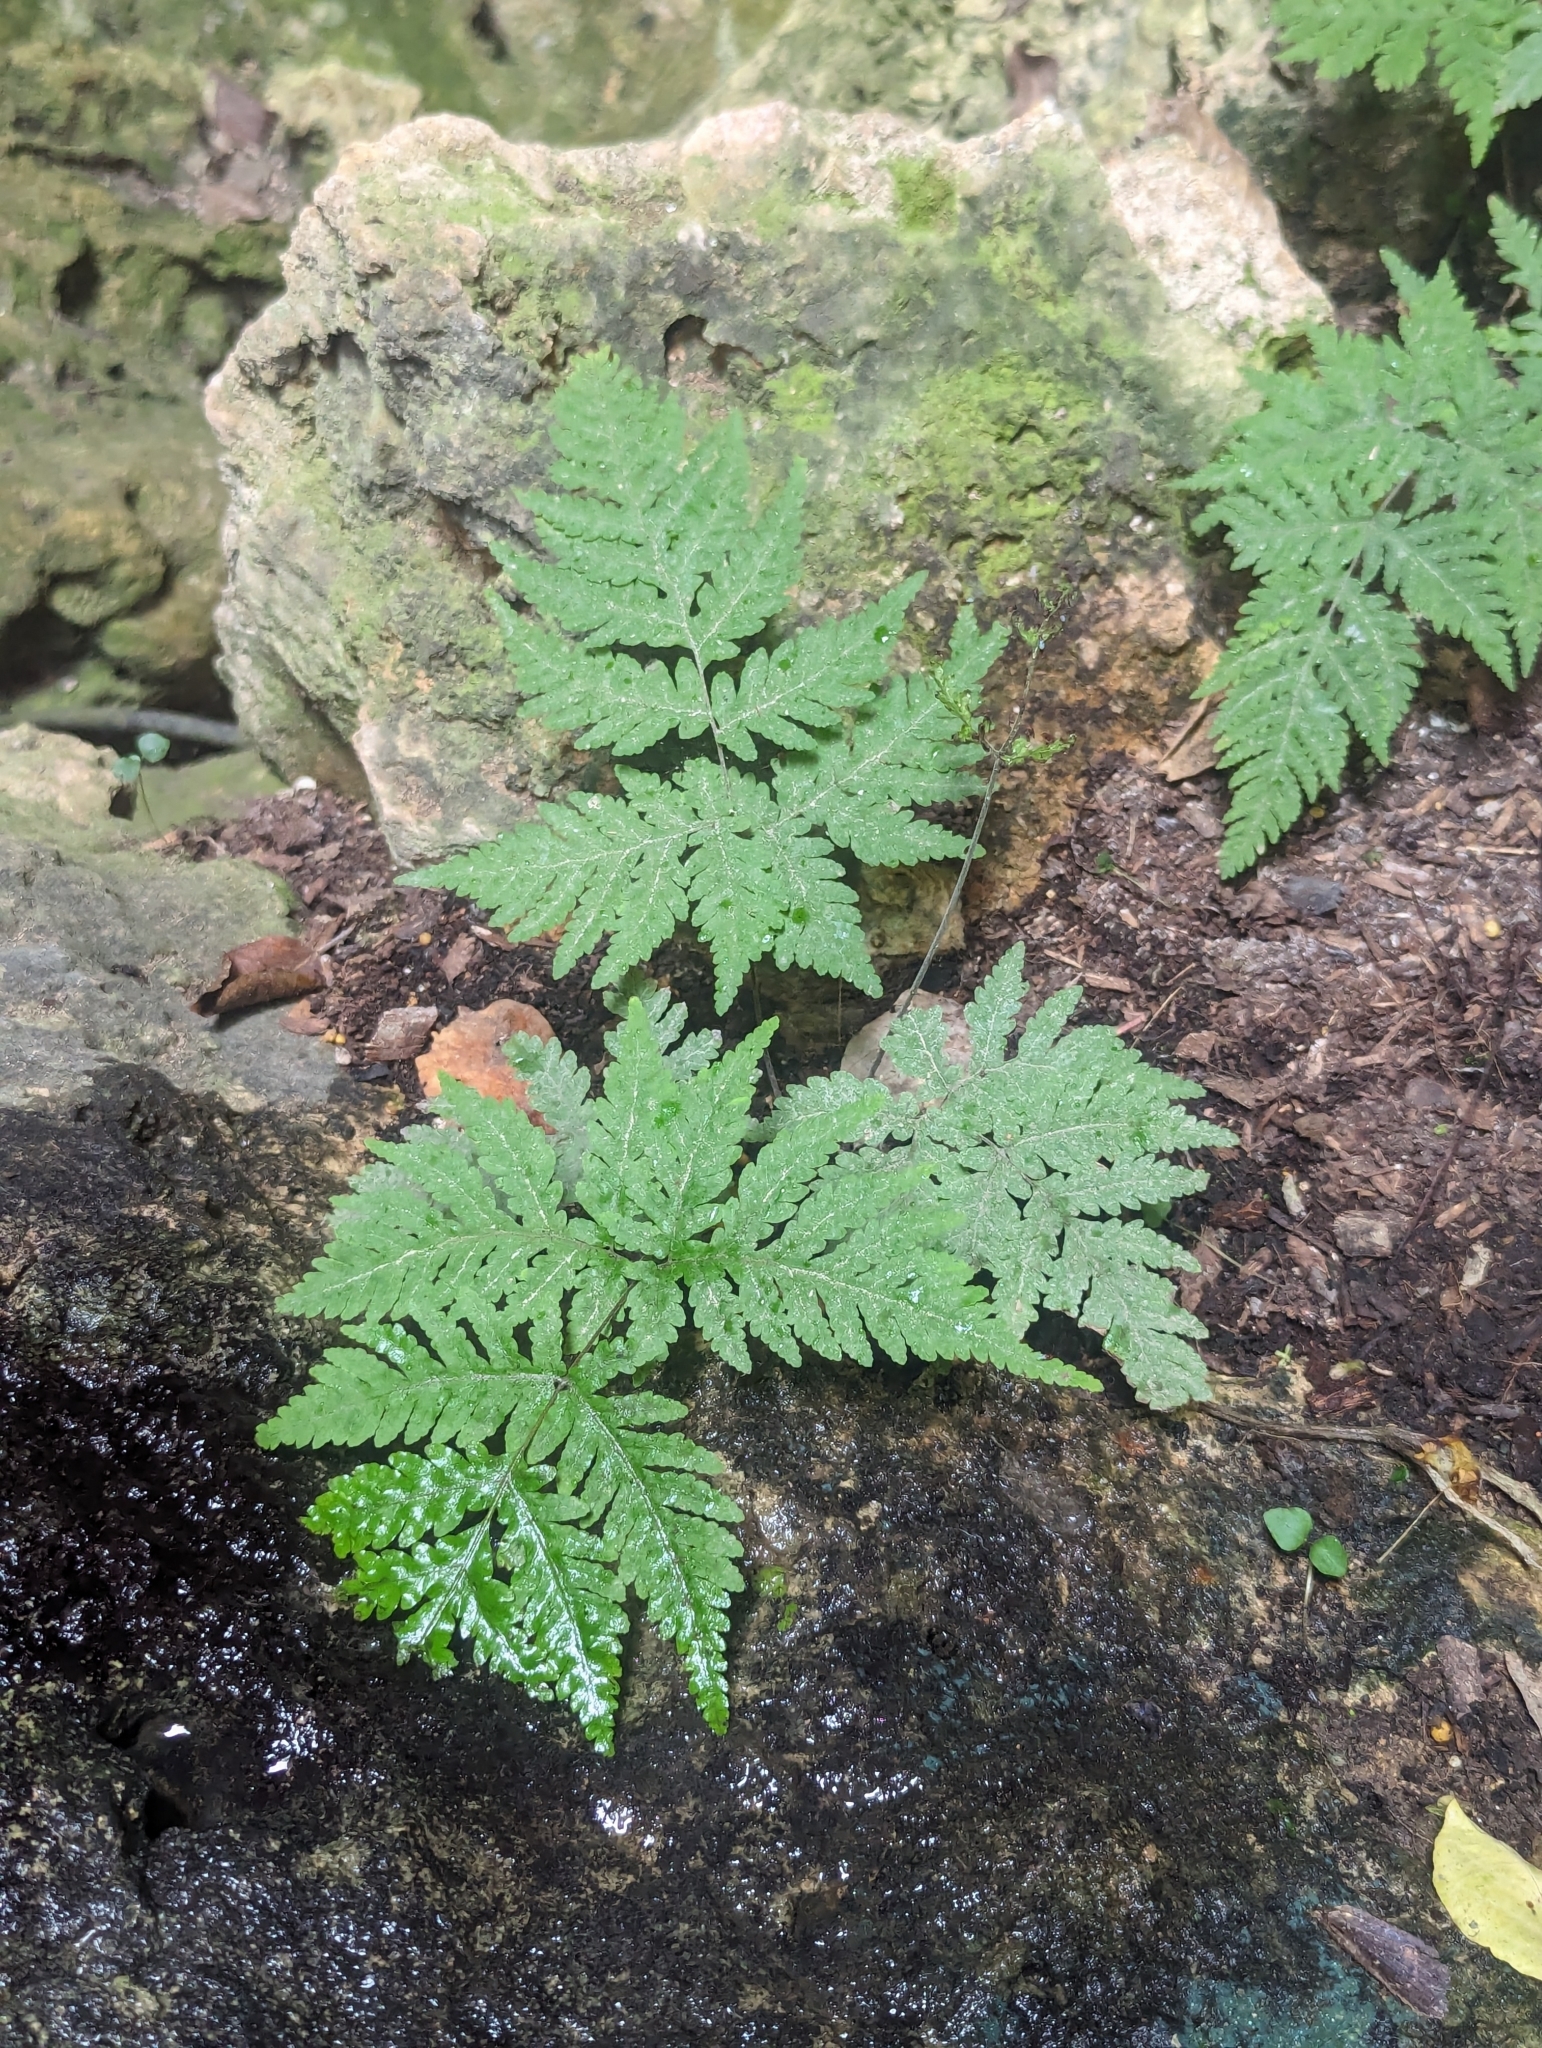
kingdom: Plantae
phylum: Tracheophyta
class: Polypodiopsida
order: Polypodiales
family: Tectariaceae
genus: Tectaria
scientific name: Tectaria membranacea
